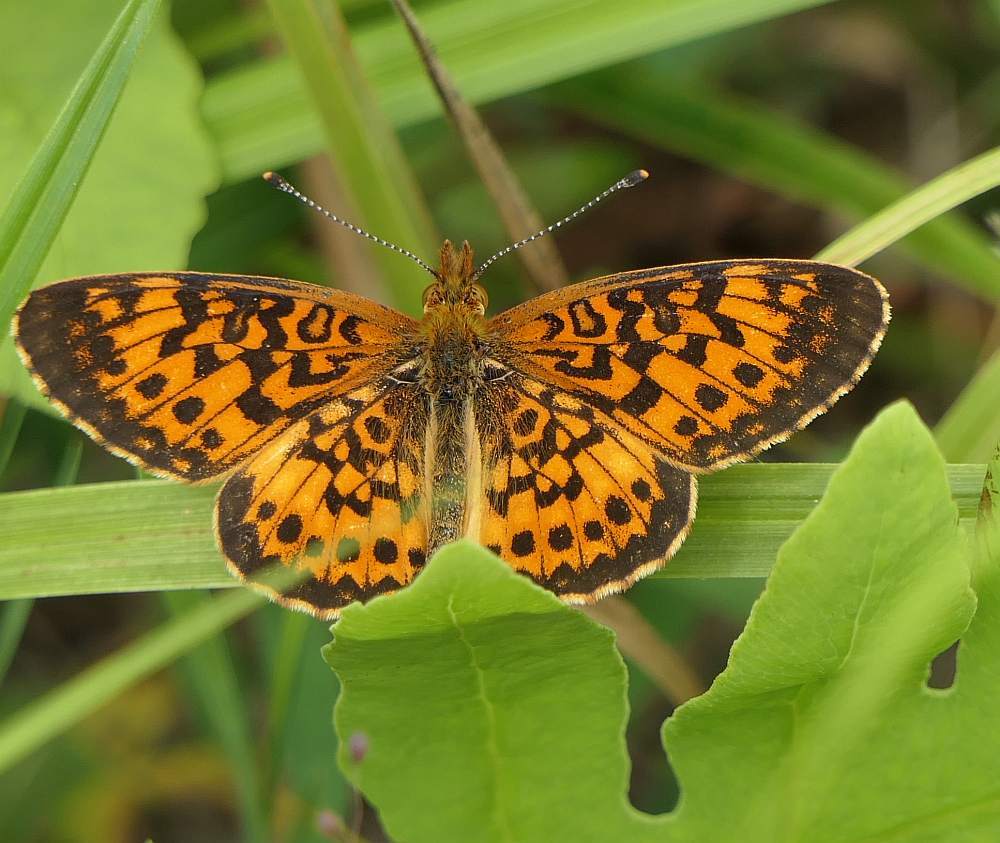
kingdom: Animalia
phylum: Arthropoda
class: Insecta
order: Lepidoptera
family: Nymphalidae
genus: Boloria
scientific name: Boloria
